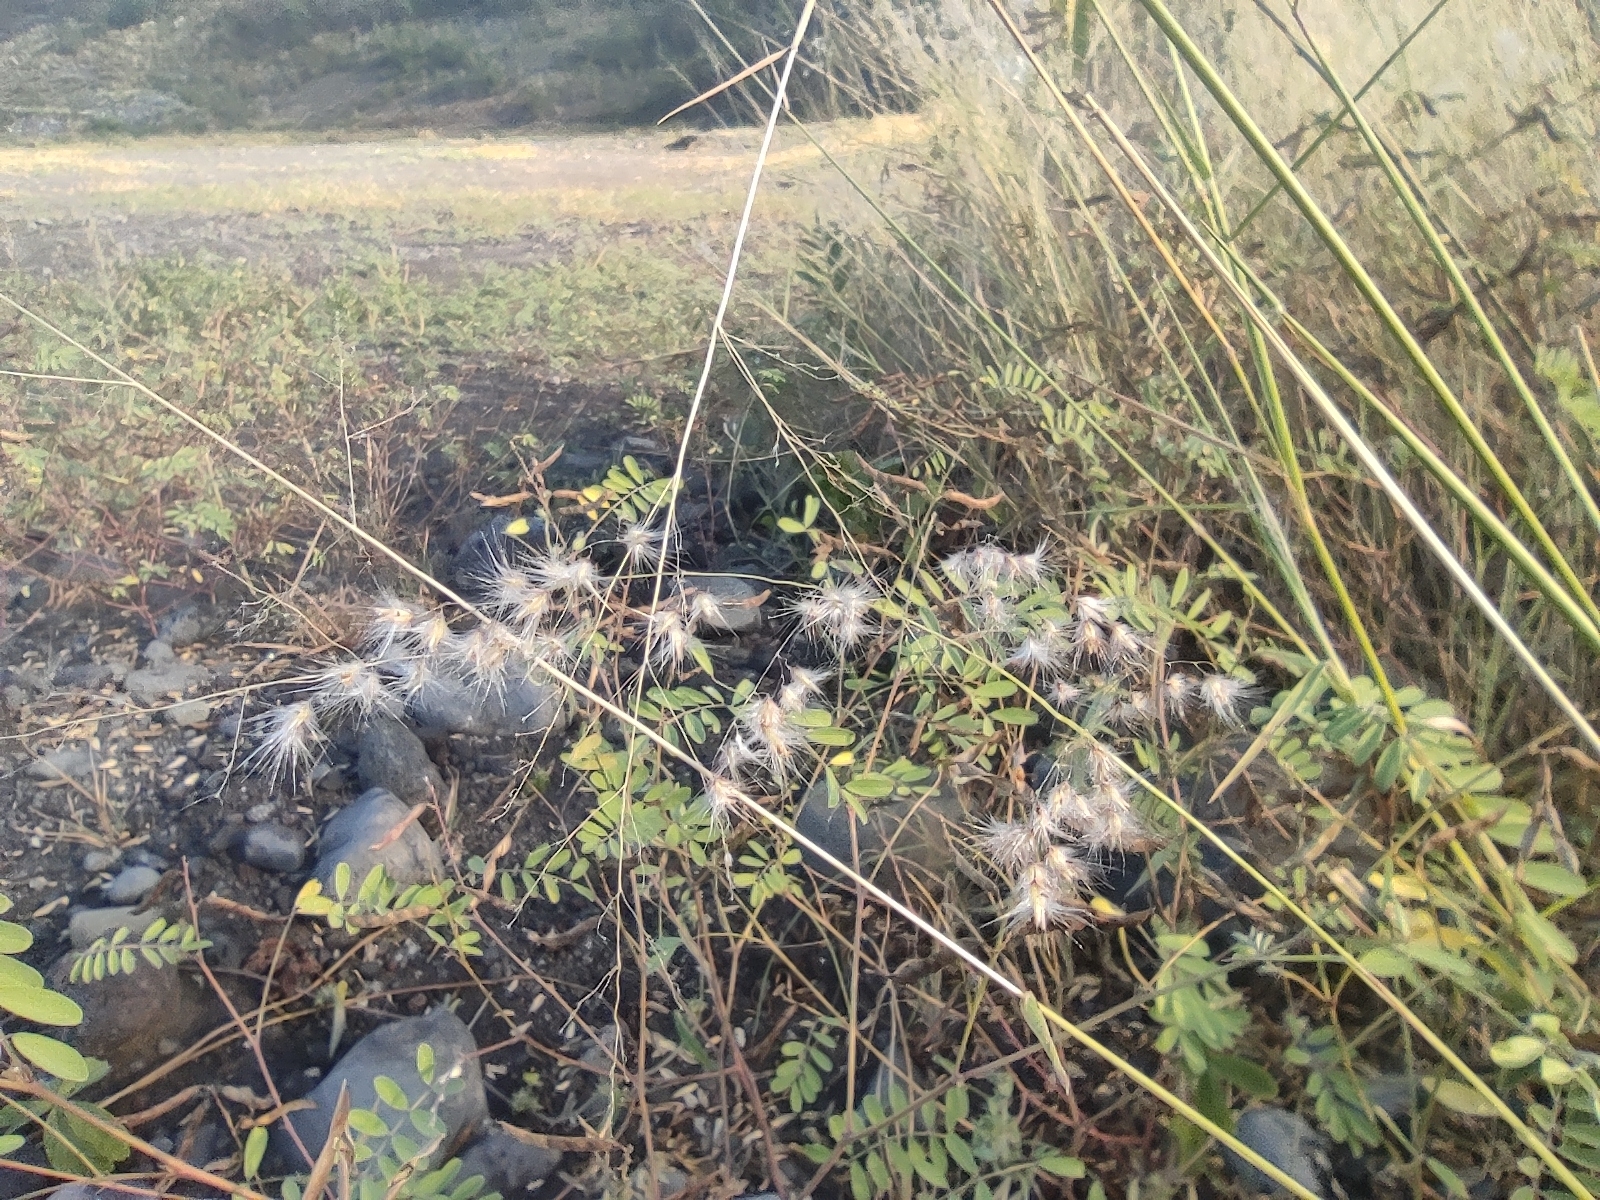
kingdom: Plantae
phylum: Tracheophyta
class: Liliopsida
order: Poales
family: Poaceae
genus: Melinis
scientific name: Melinis repens
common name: Rose natal grass
